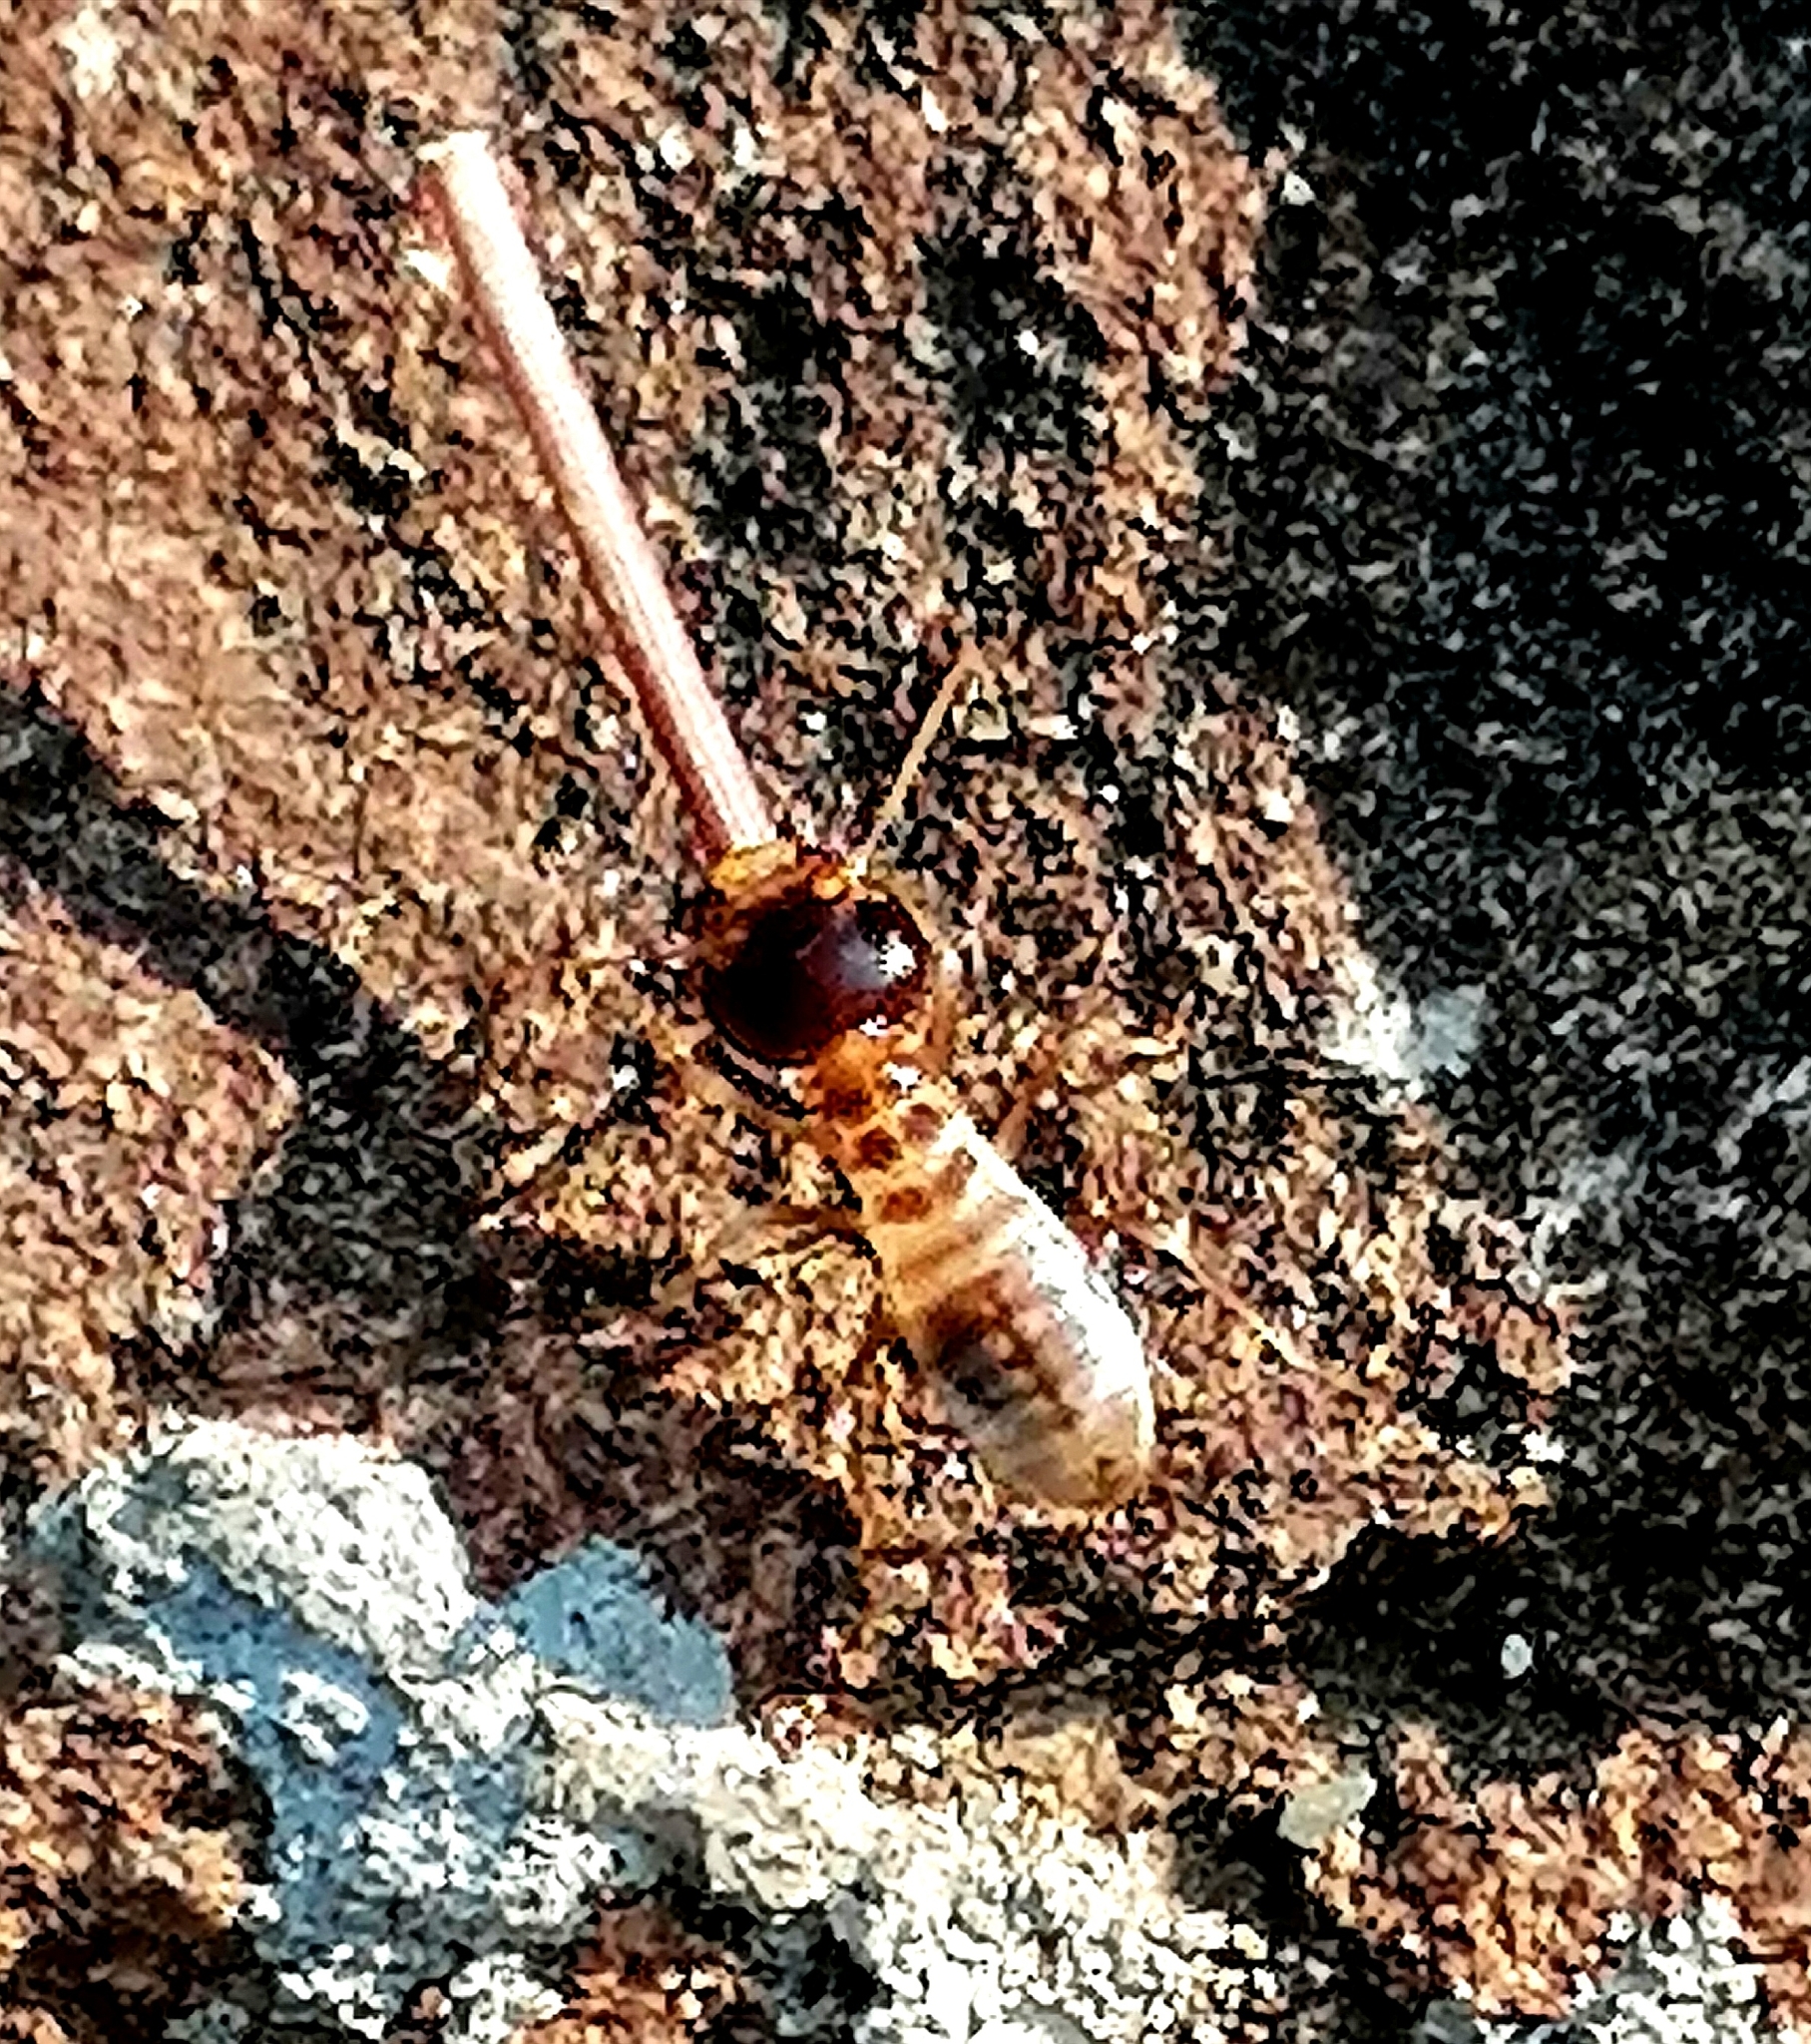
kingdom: Animalia
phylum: Arthropoda
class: Insecta
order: Blattodea
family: Hodotermitidae
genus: Hodotermes
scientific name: Hodotermes mossambicus
